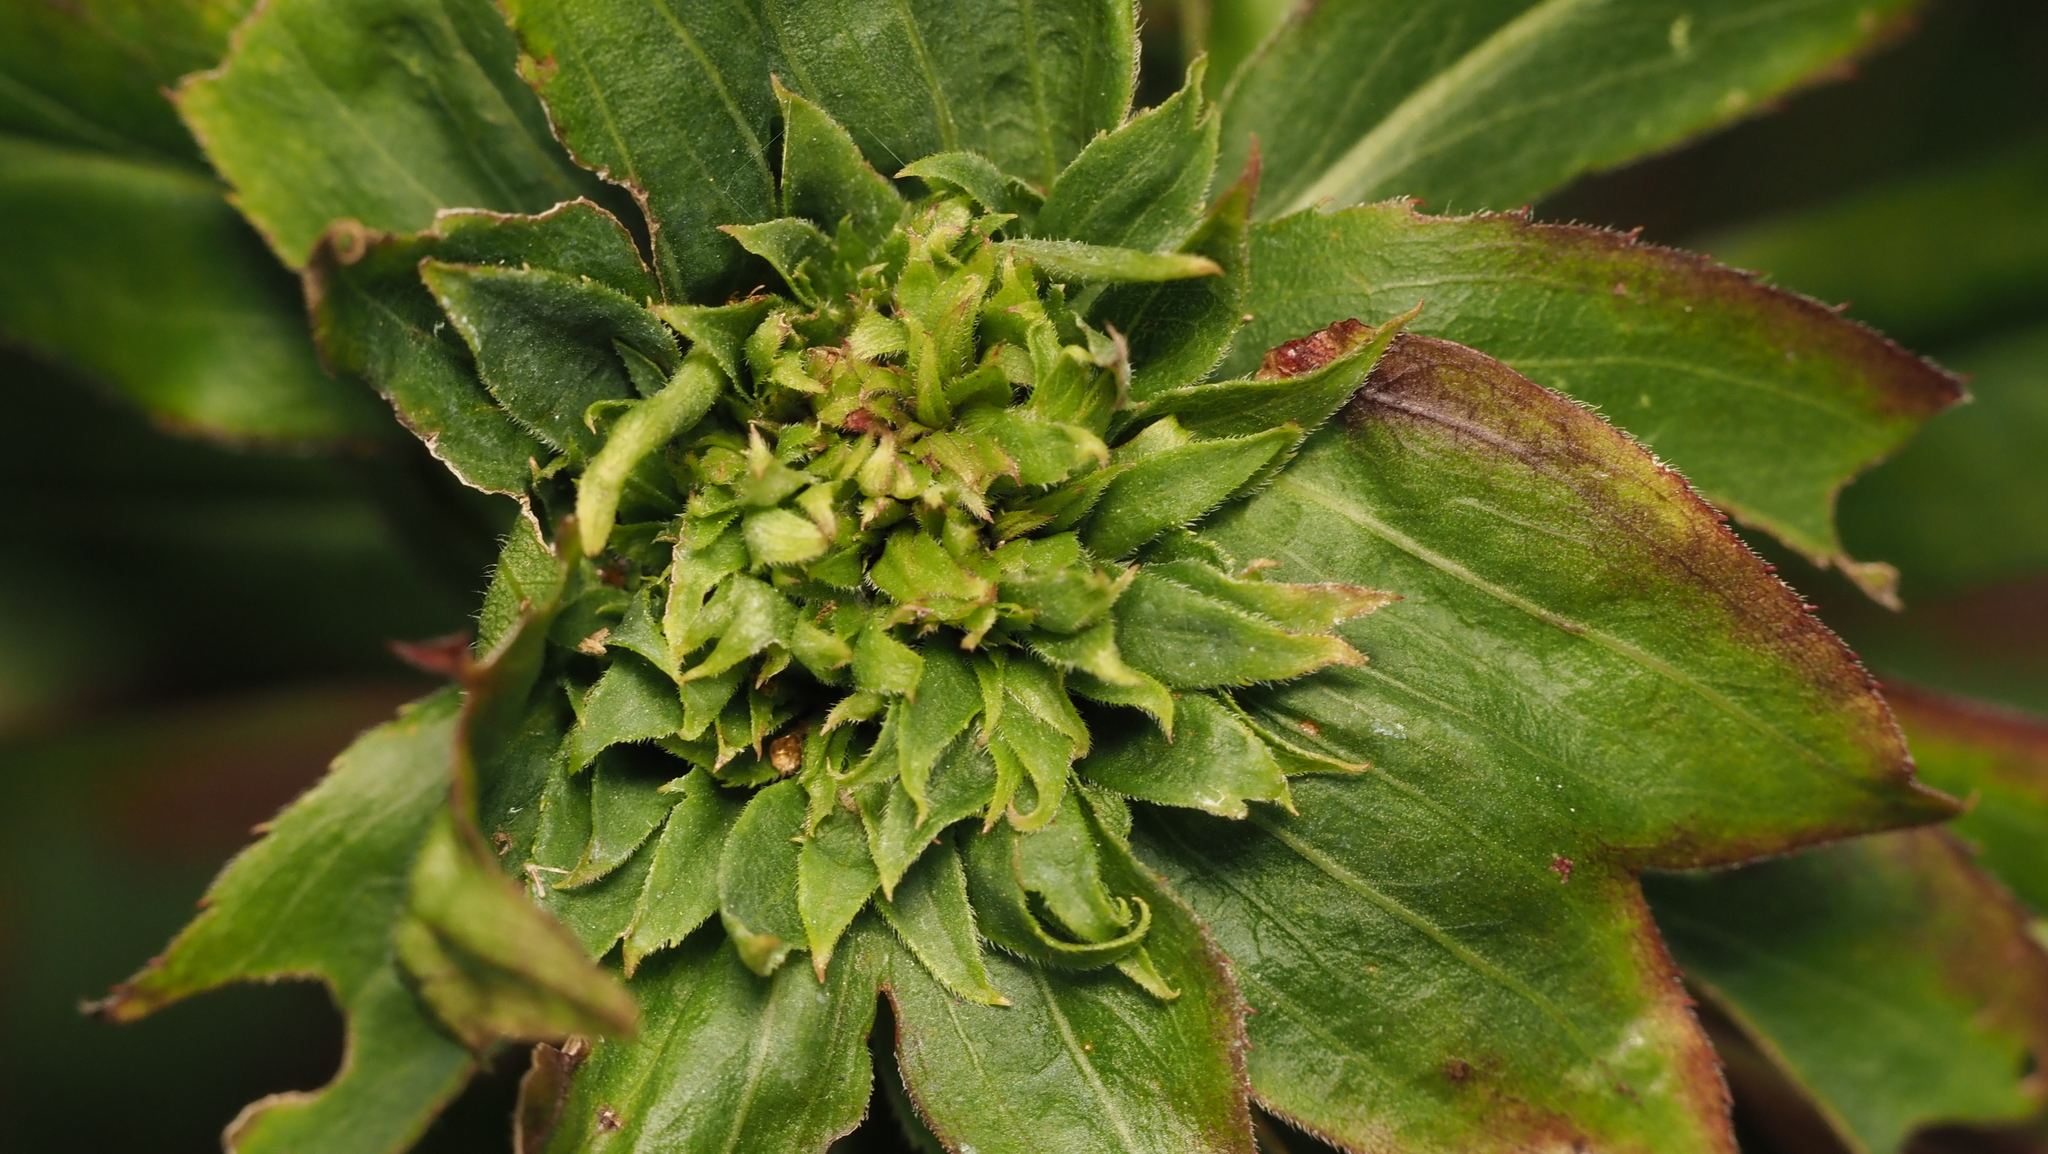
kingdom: Animalia
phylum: Arthropoda
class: Insecta
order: Diptera
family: Cecidomyiidae
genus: Rhopalomyia
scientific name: Rhopalomyia capitata
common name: Giant goldenrod bunch gall midge
